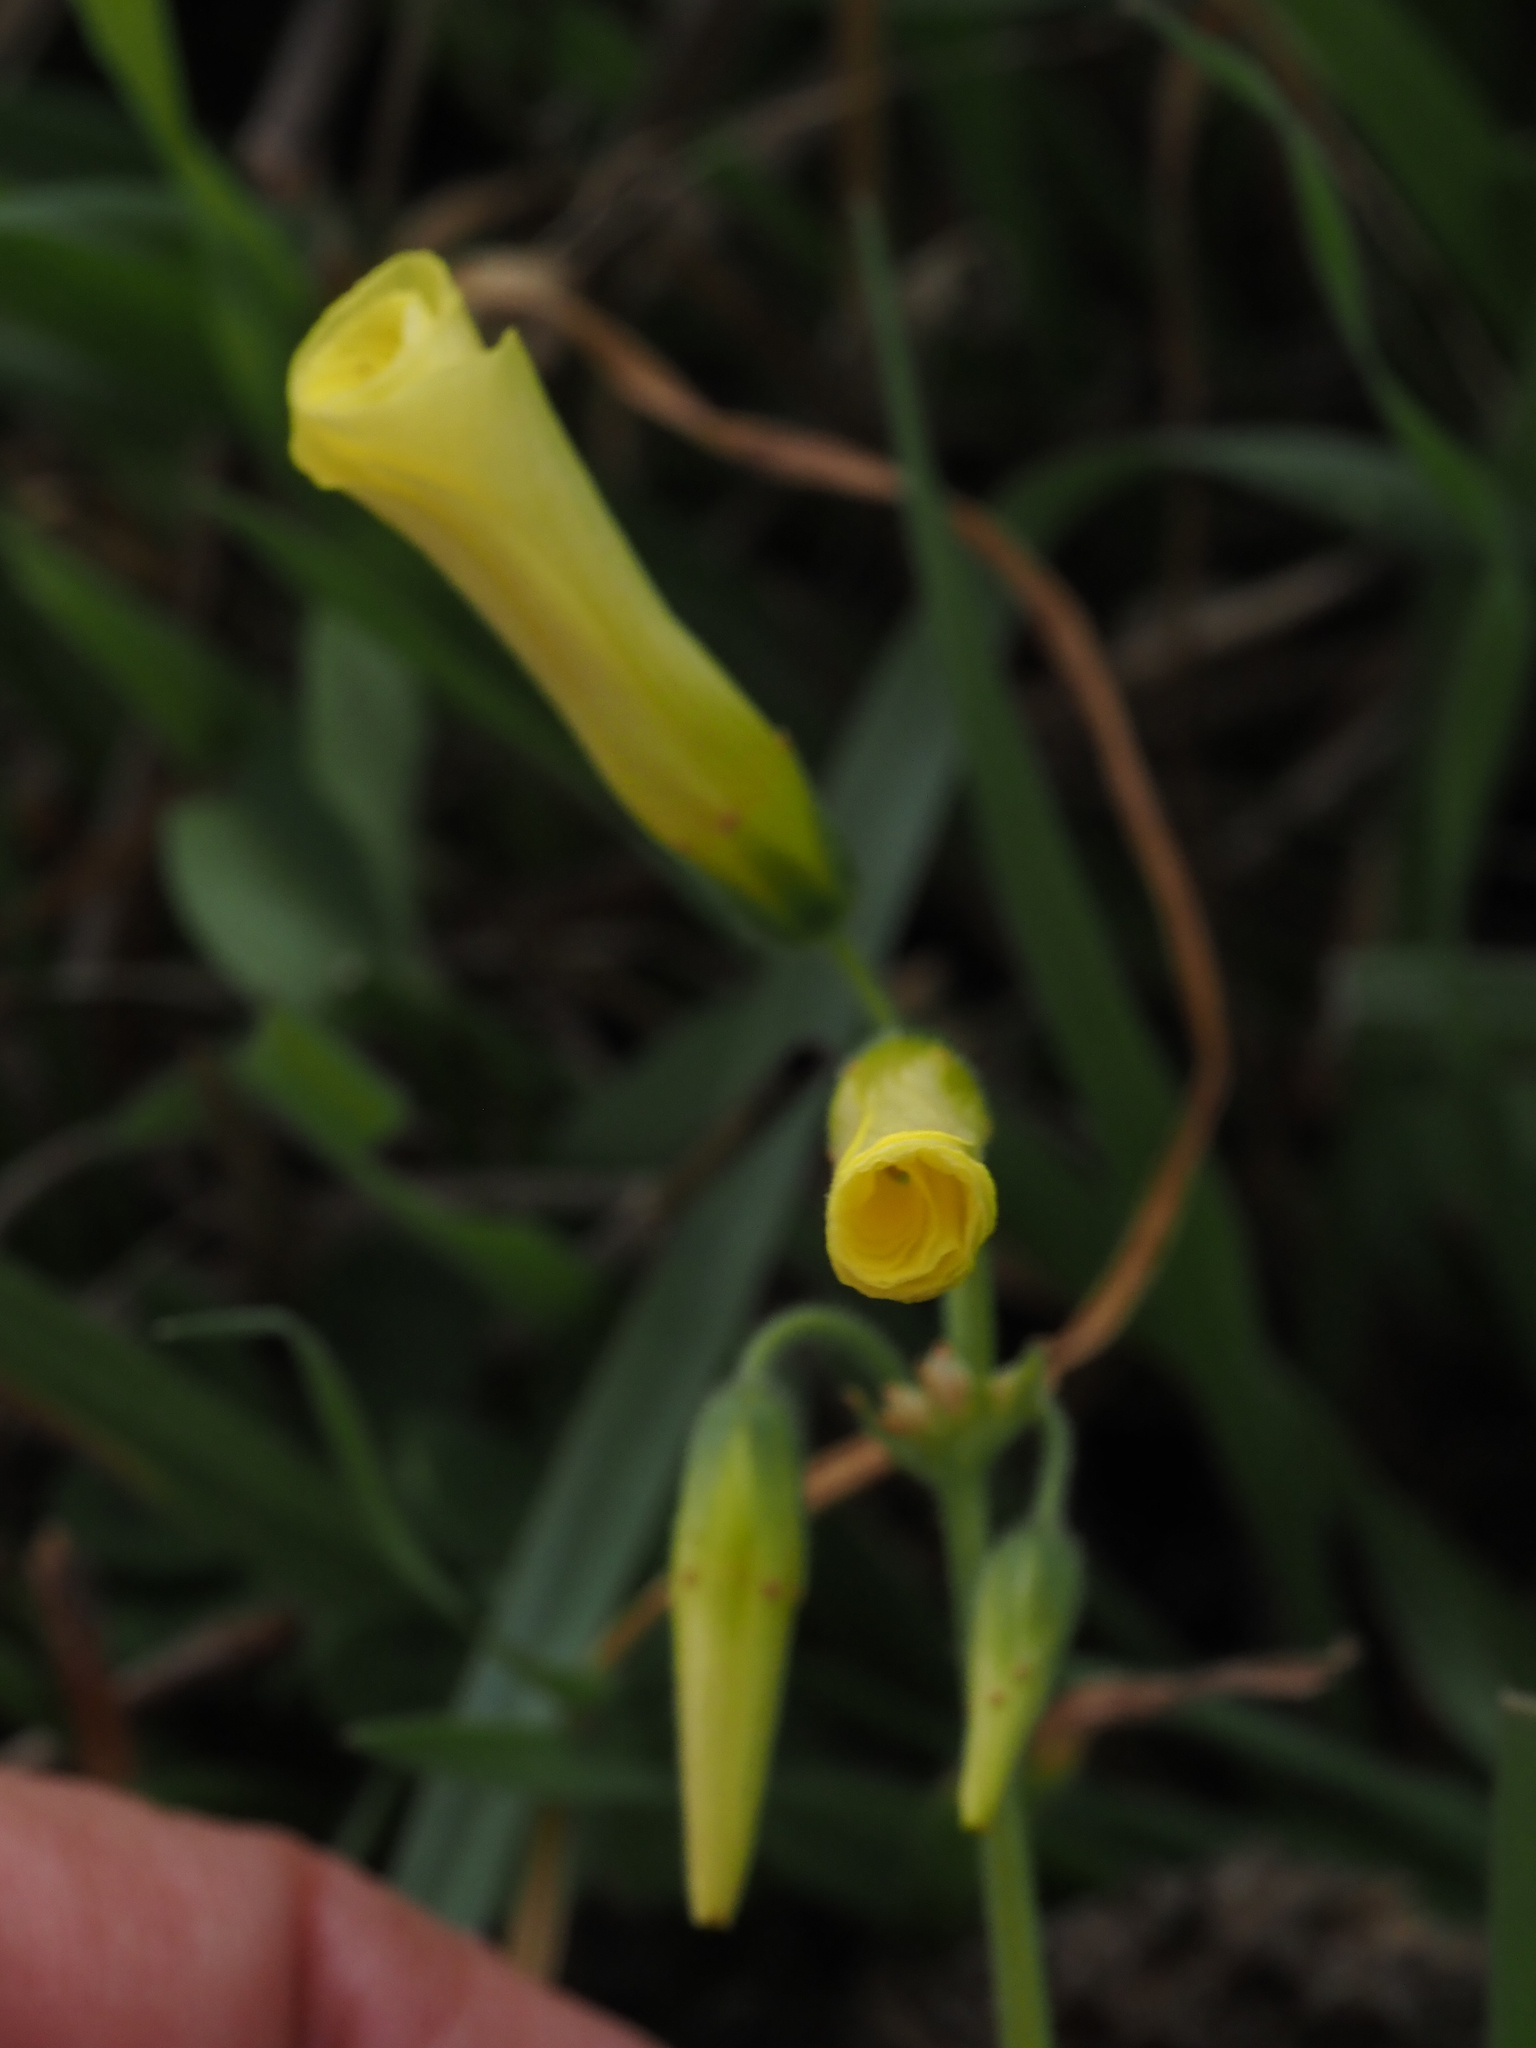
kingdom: Plantae
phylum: Tracheophyta
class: Magnoliopsida
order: Oxalidales
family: Oxalidaceae
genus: Oxalis
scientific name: Oxalis pes-caprae
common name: Bermuda-buttercup
